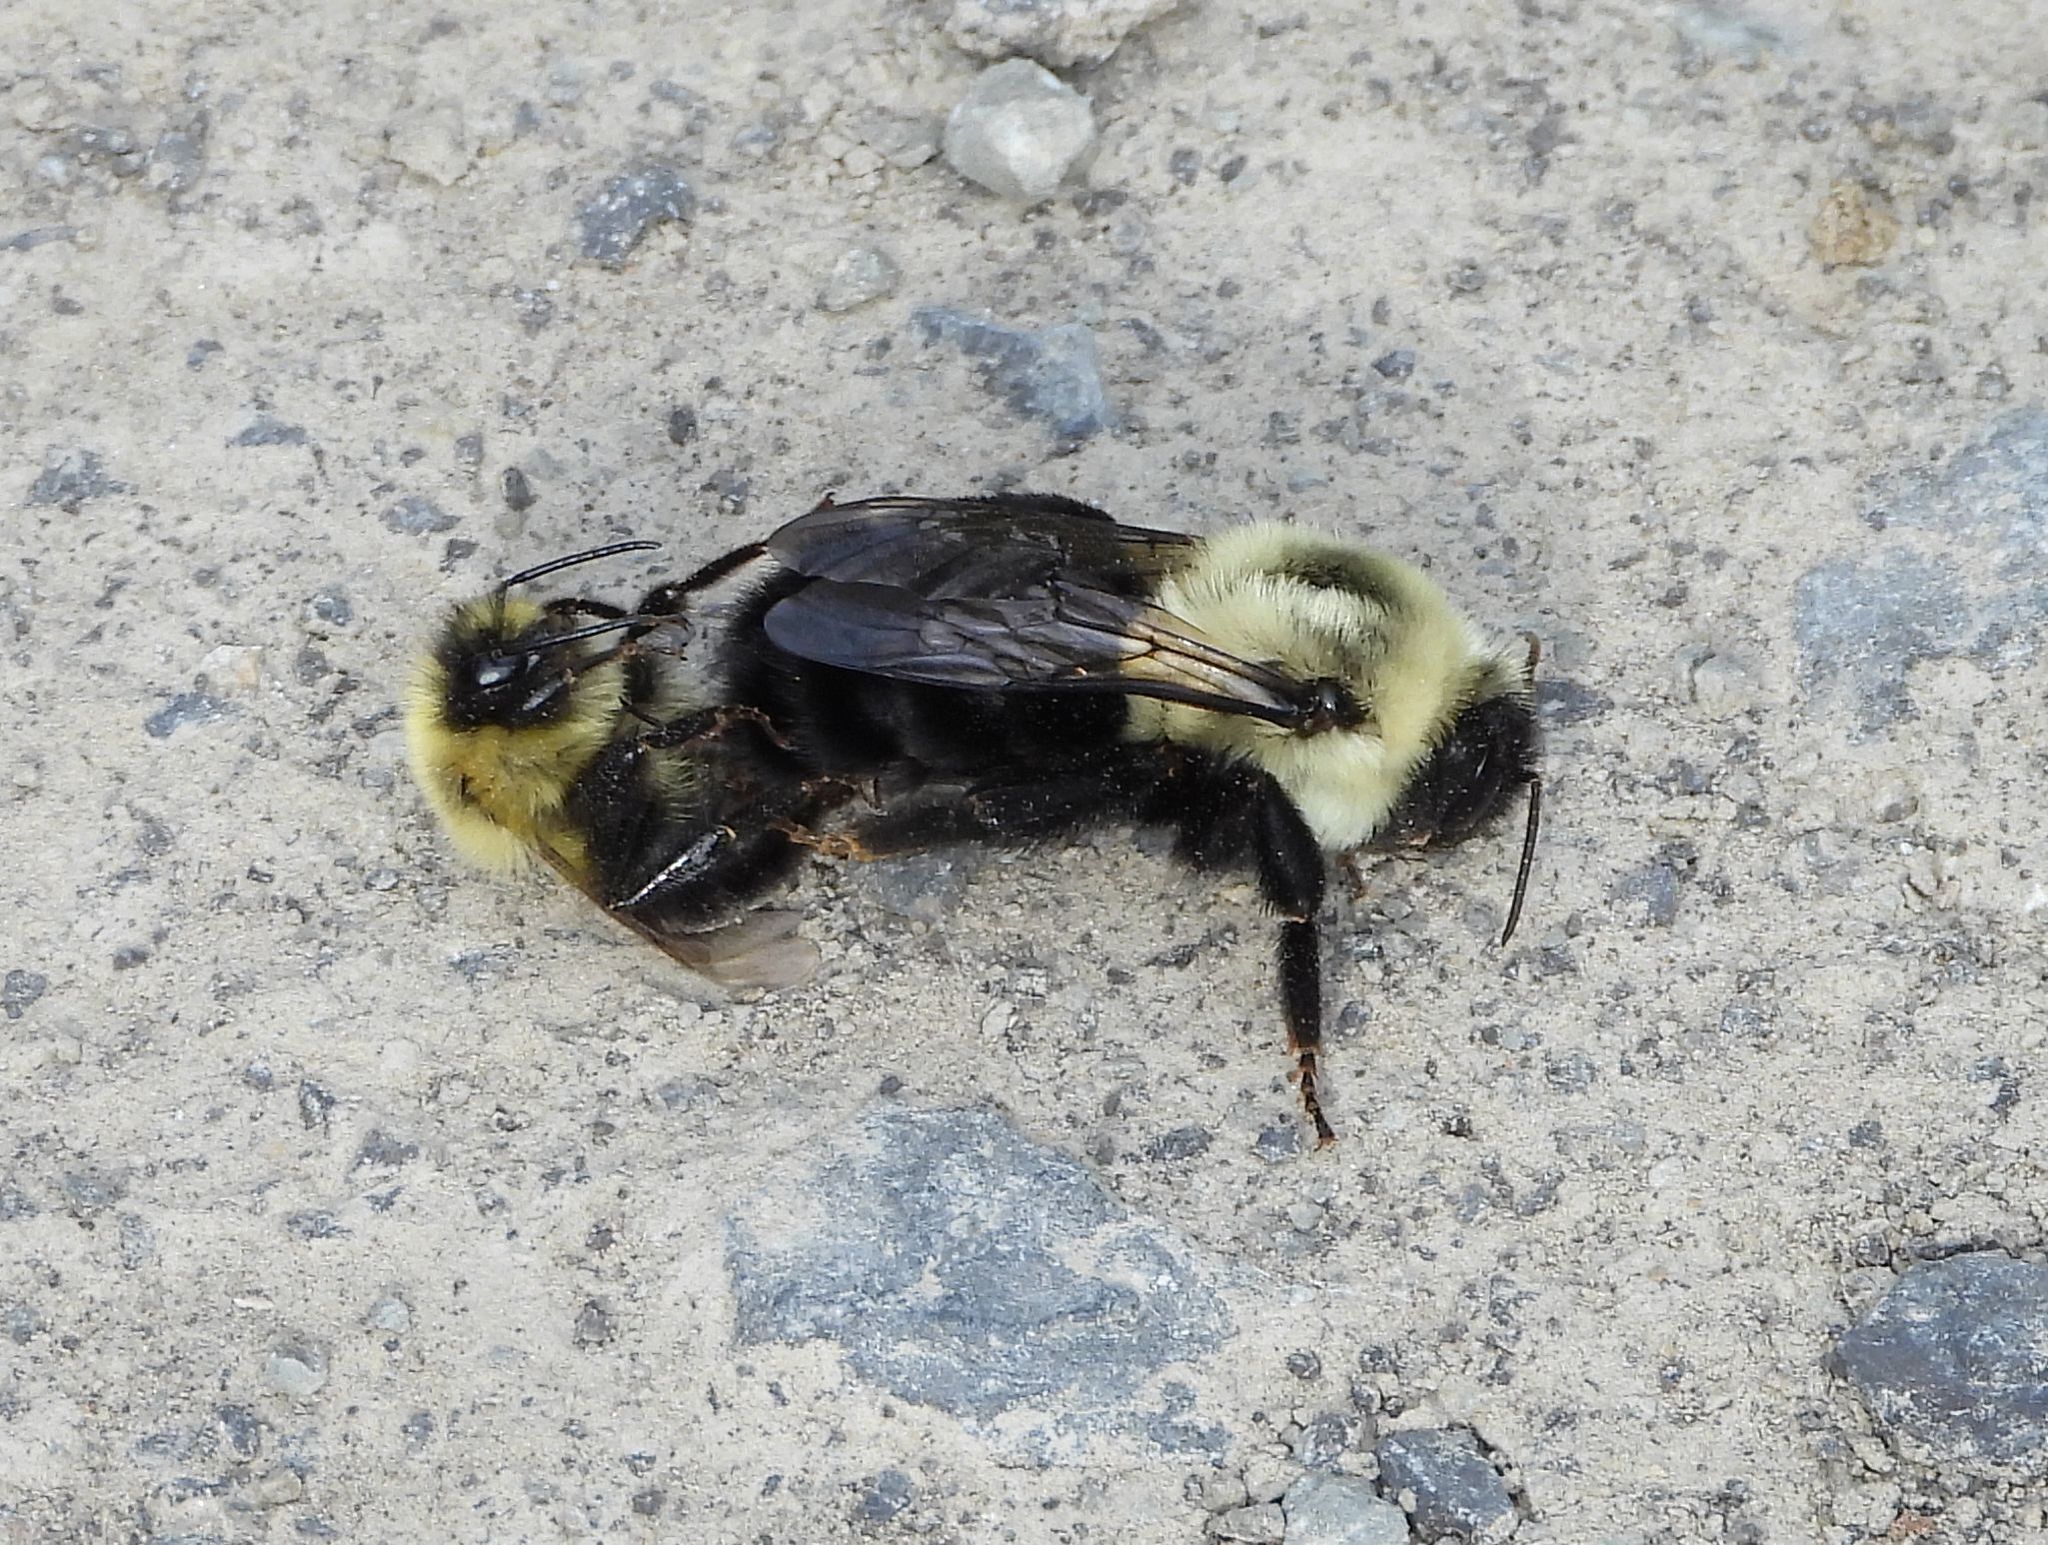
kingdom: Animalia
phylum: Arthropoda
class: Insecta
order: Hymenoptera
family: Apidae
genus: Bombus
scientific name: Bombus impatiens
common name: Common eastern bumble bee
